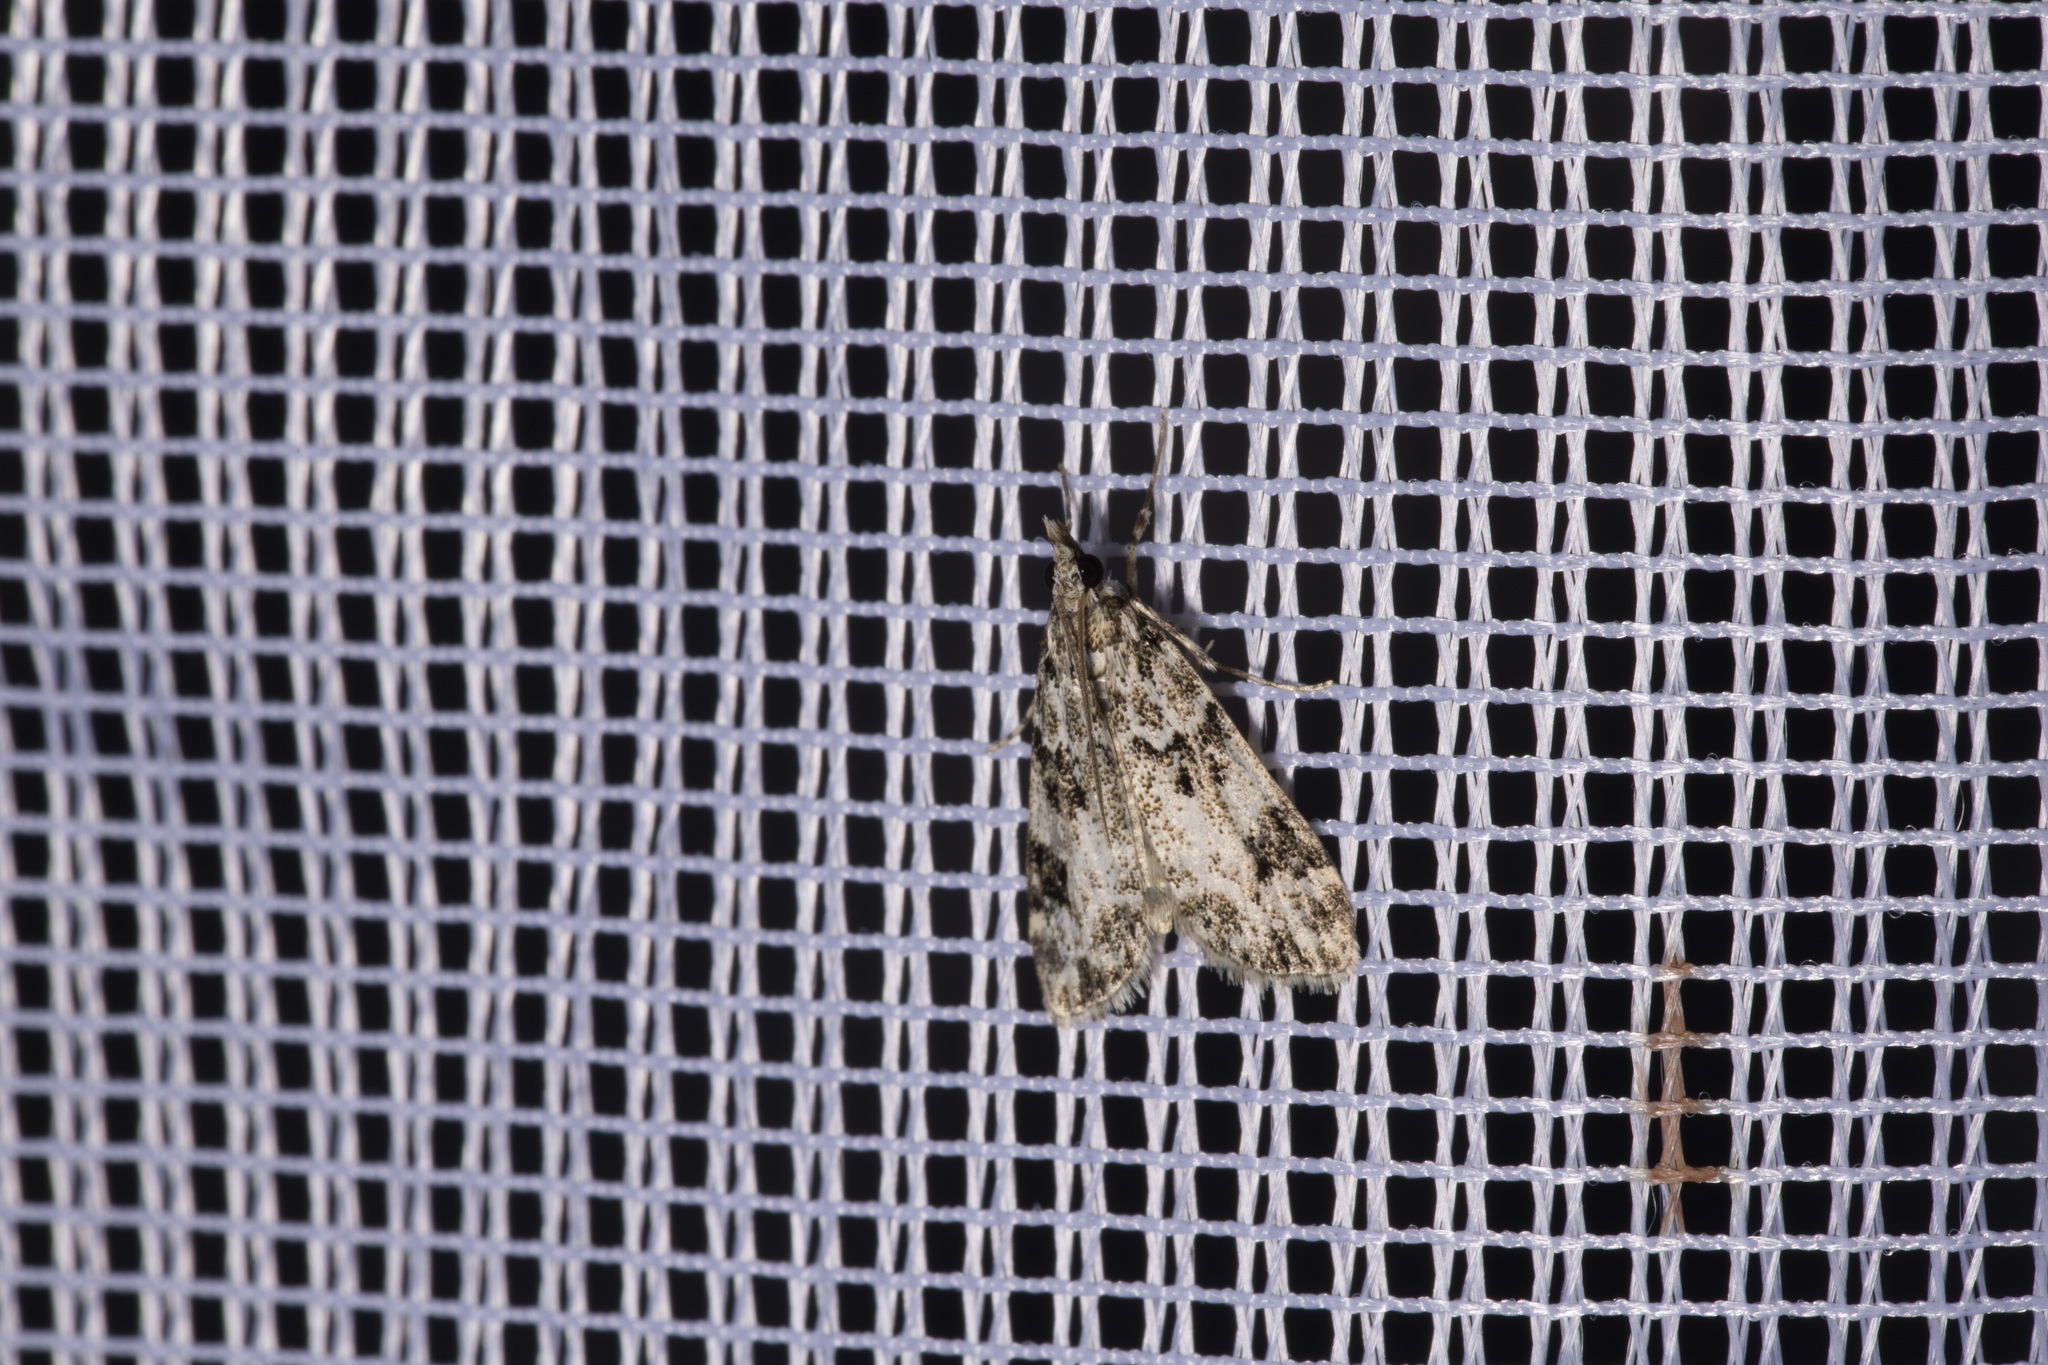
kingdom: Animalia
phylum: Arthropoda
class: Insecta
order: Lepidoptera
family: Crambidae
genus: Eudonia
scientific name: Eudonia delunella
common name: Pied grey
